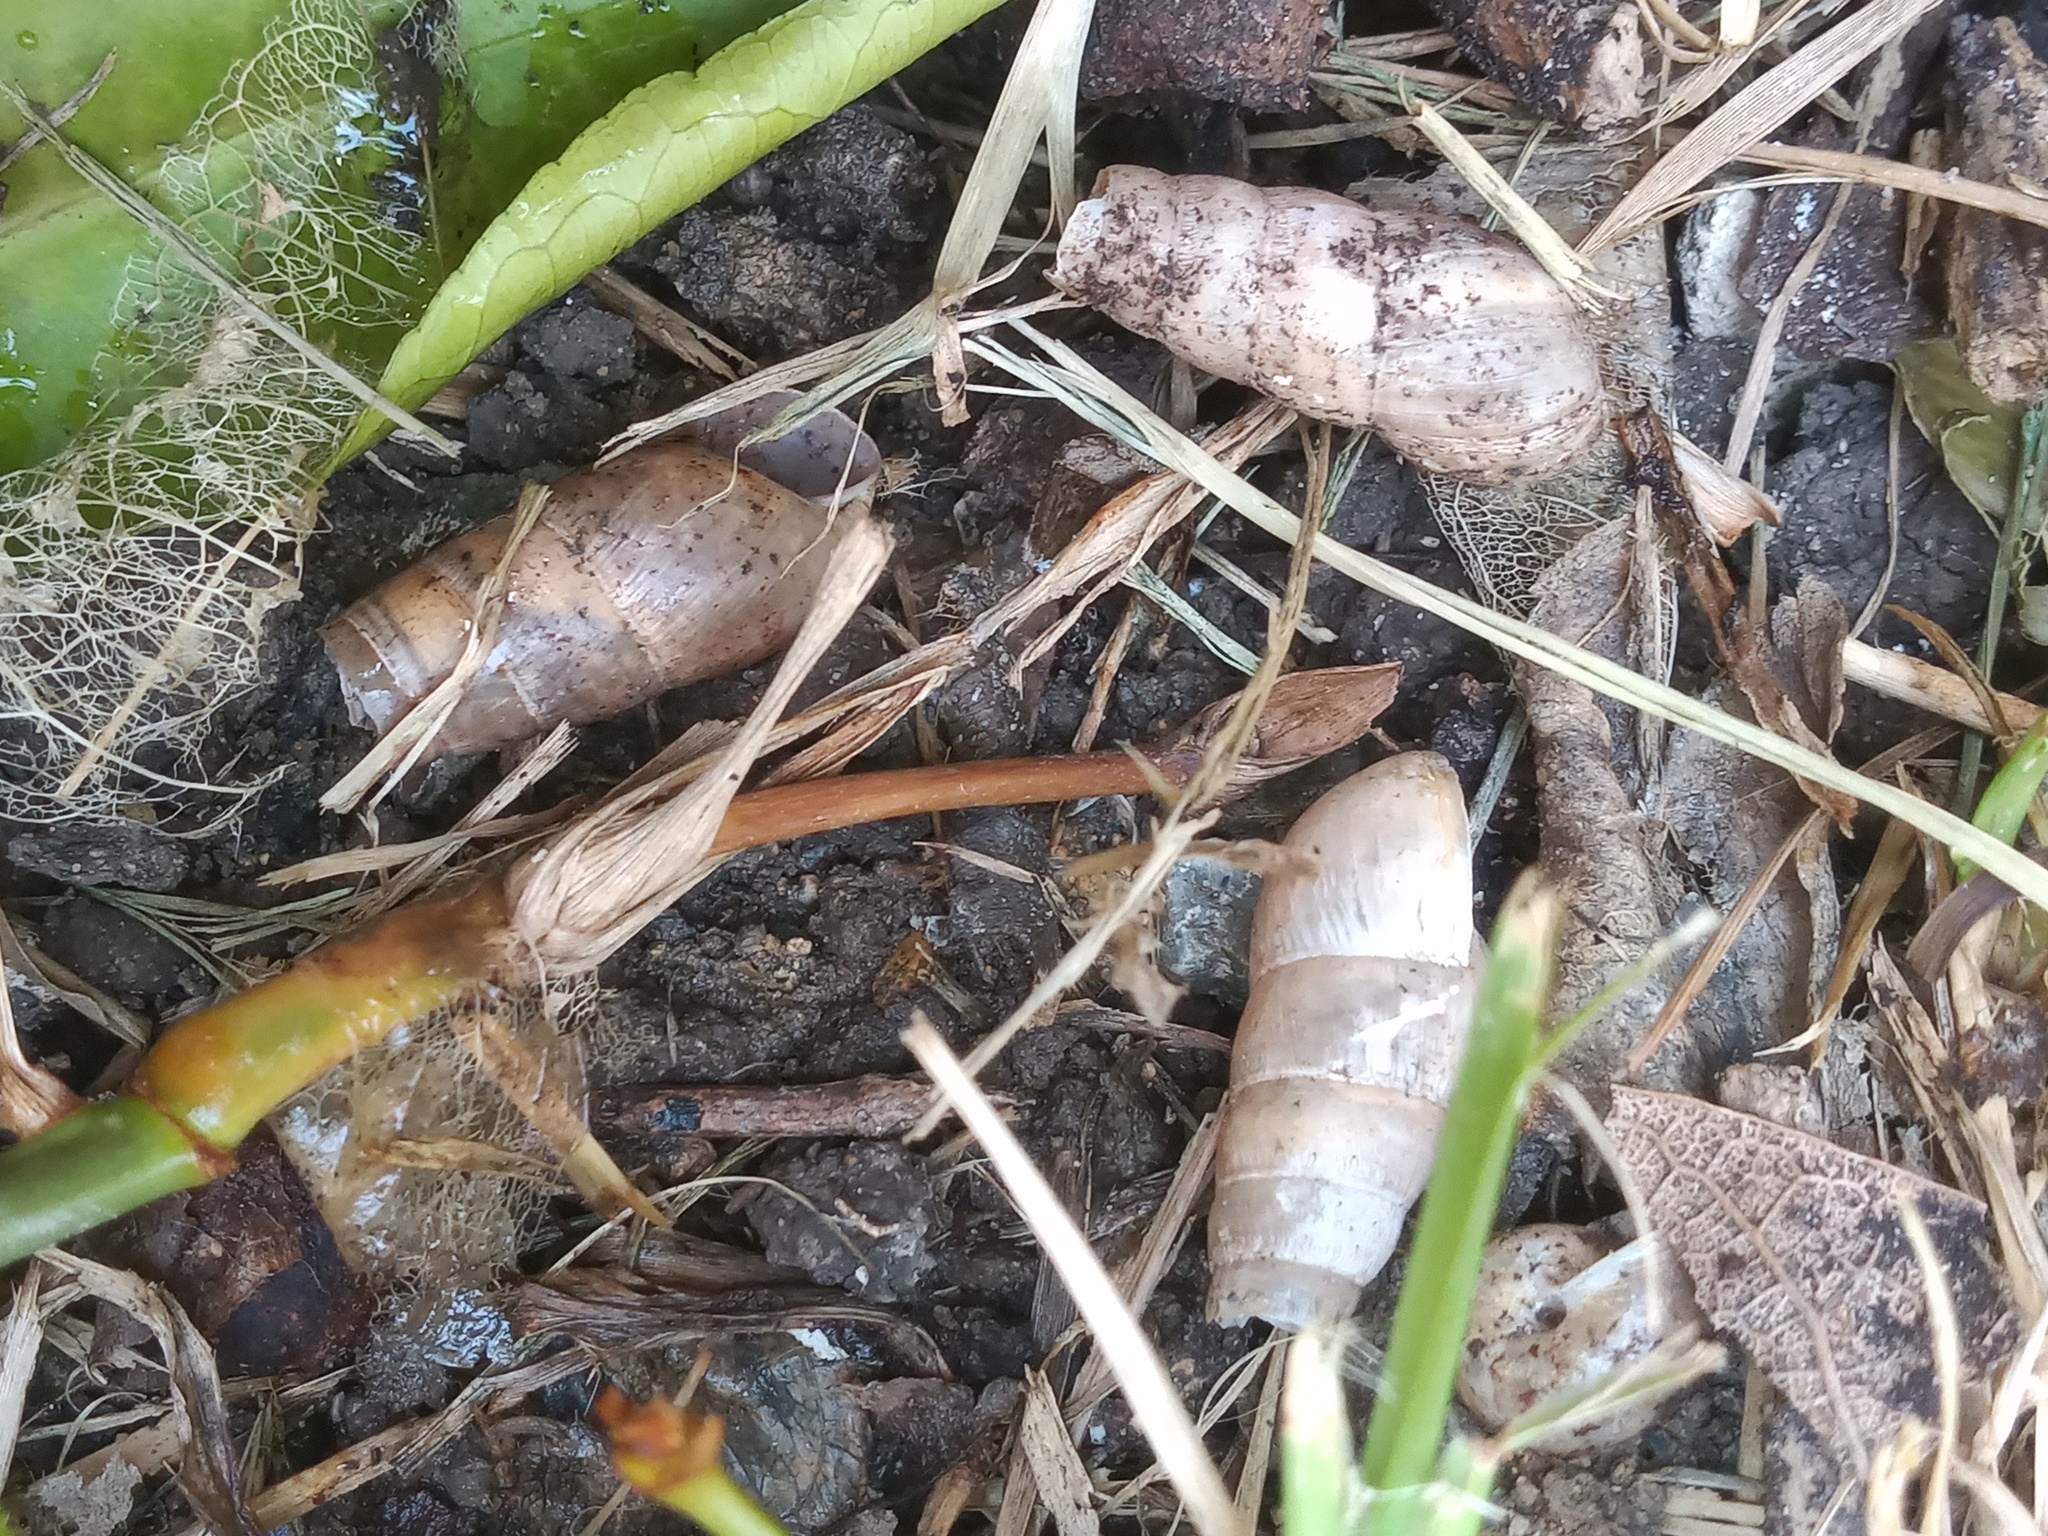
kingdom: Animalia
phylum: Mollusca
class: Gastropoda
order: Stylommatophora
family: Achatinidae
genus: Rumina
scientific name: Rumina decollata
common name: Decollate snail
